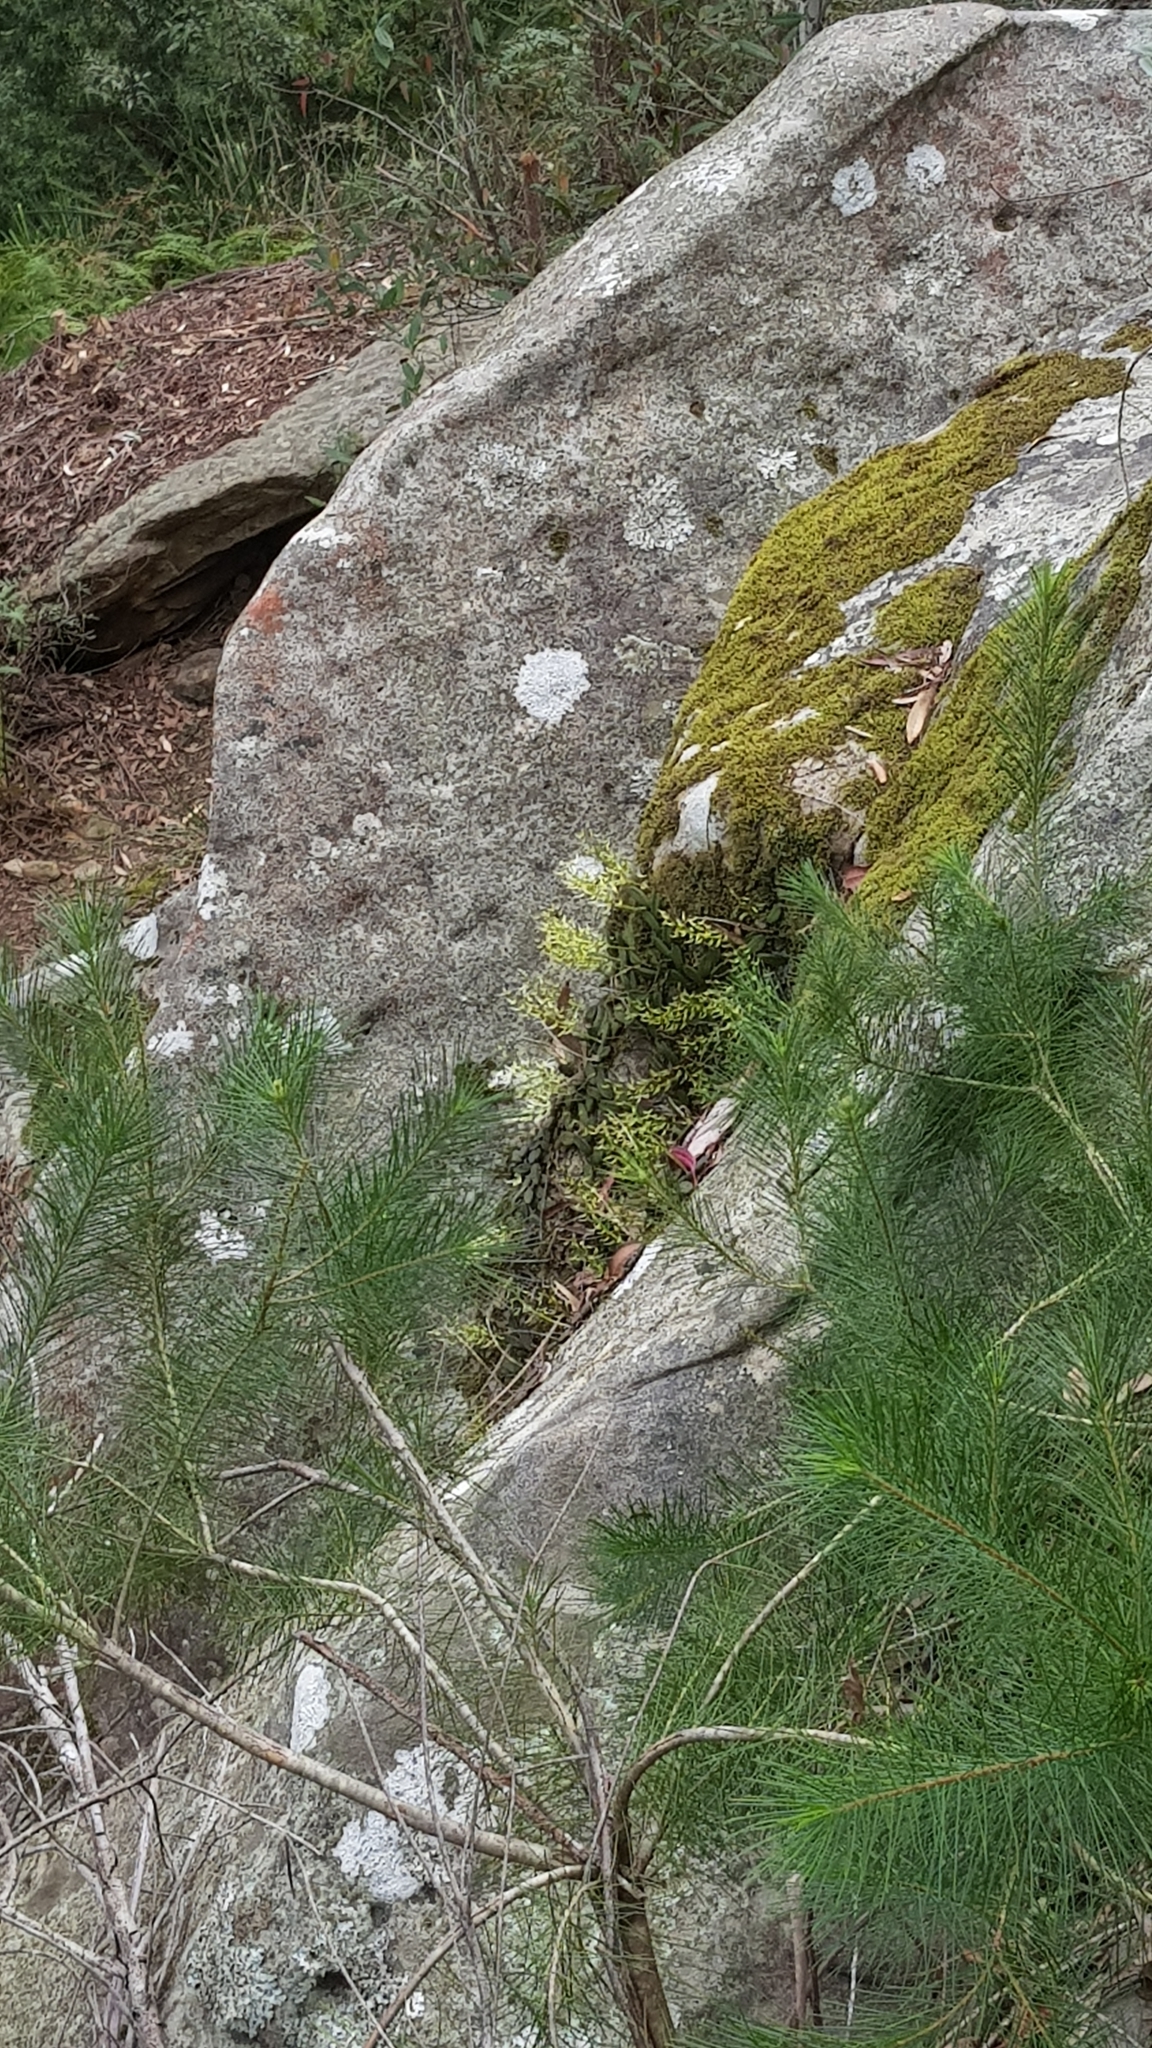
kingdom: Plantae
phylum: Tracheophyta
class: Liliopsida
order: Asparagales
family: Orchidaceae
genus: Dendrobium
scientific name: Dendrobium linguiforme
